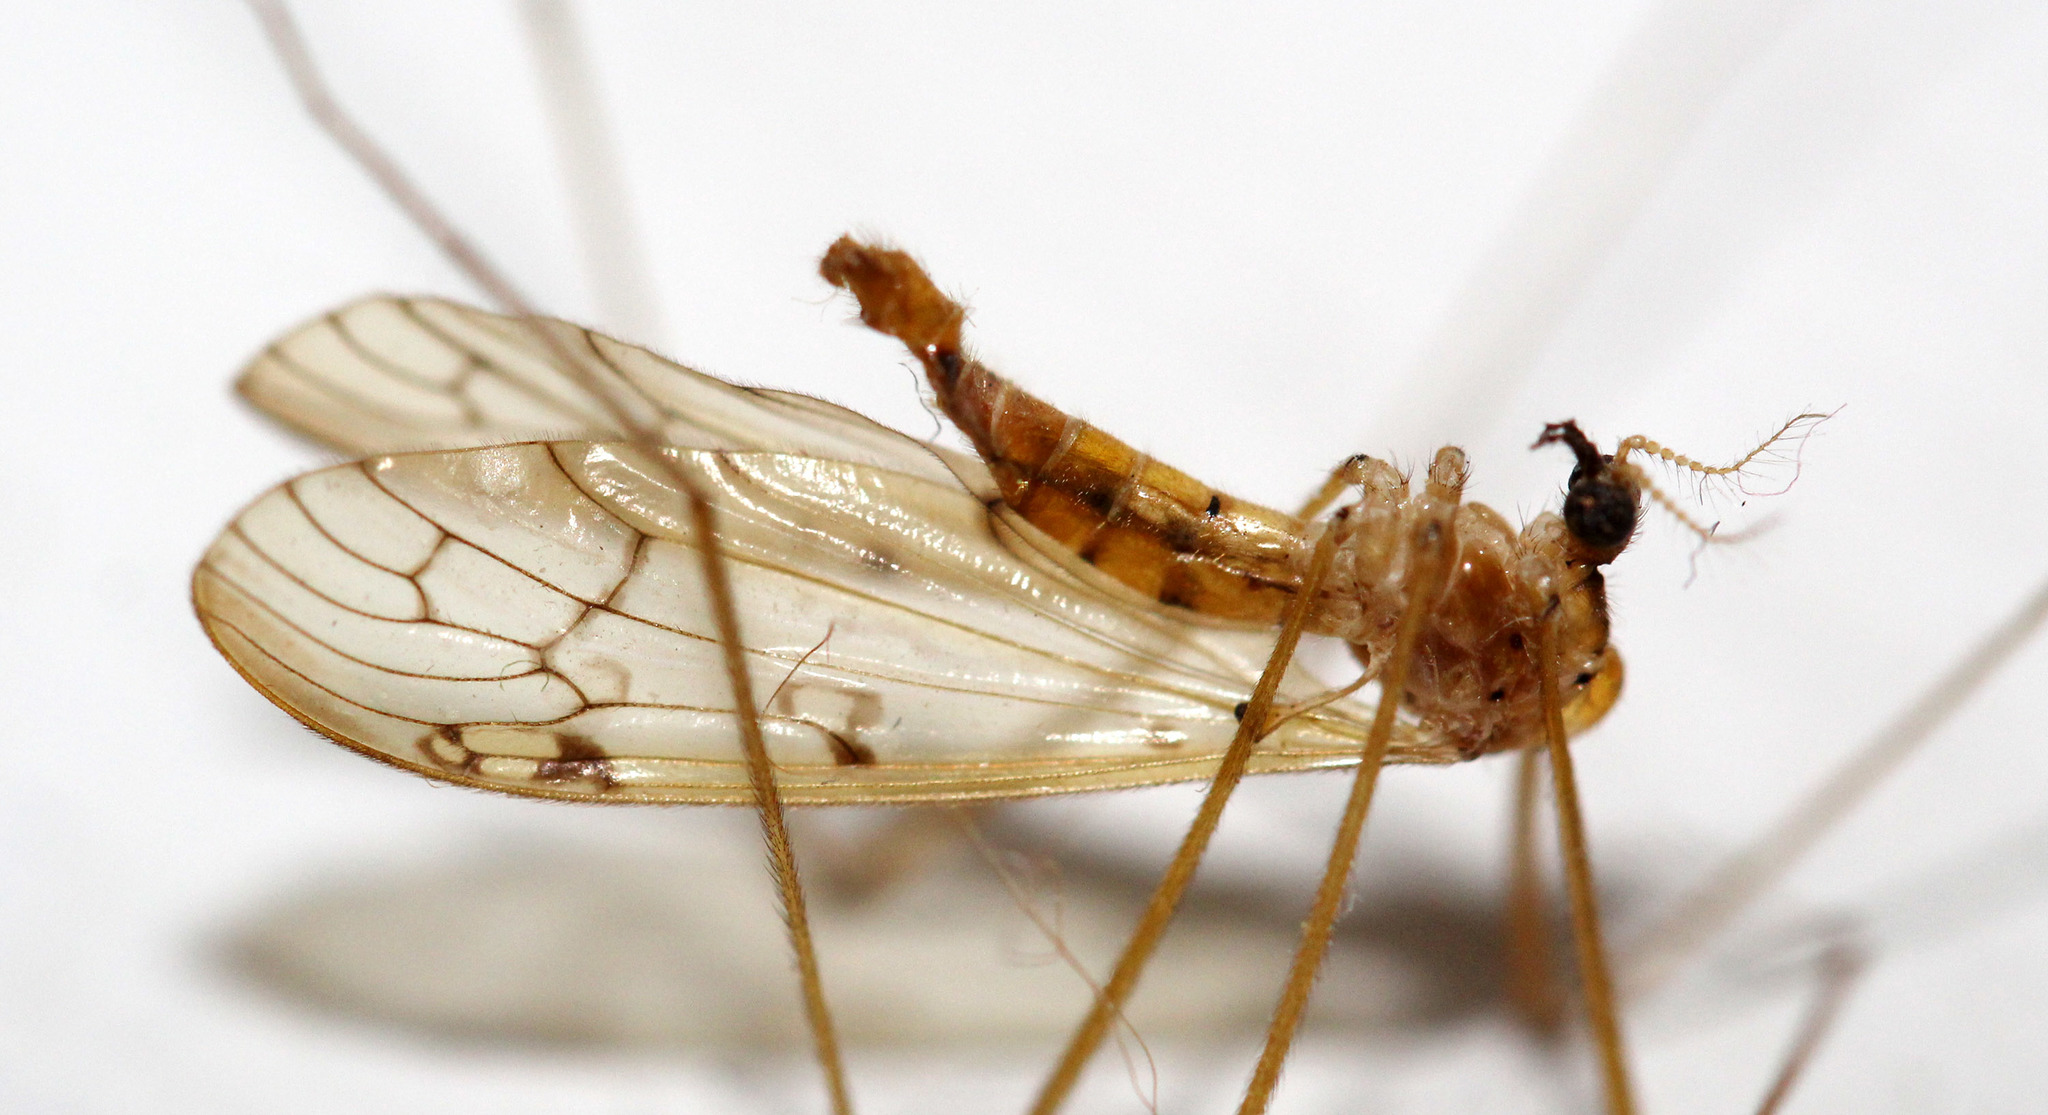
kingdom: Animalia
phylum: Arthropoda
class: Insecta
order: Diptera
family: Limoniidae
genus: Metalimnobia
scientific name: Metalimnobia triocellata
